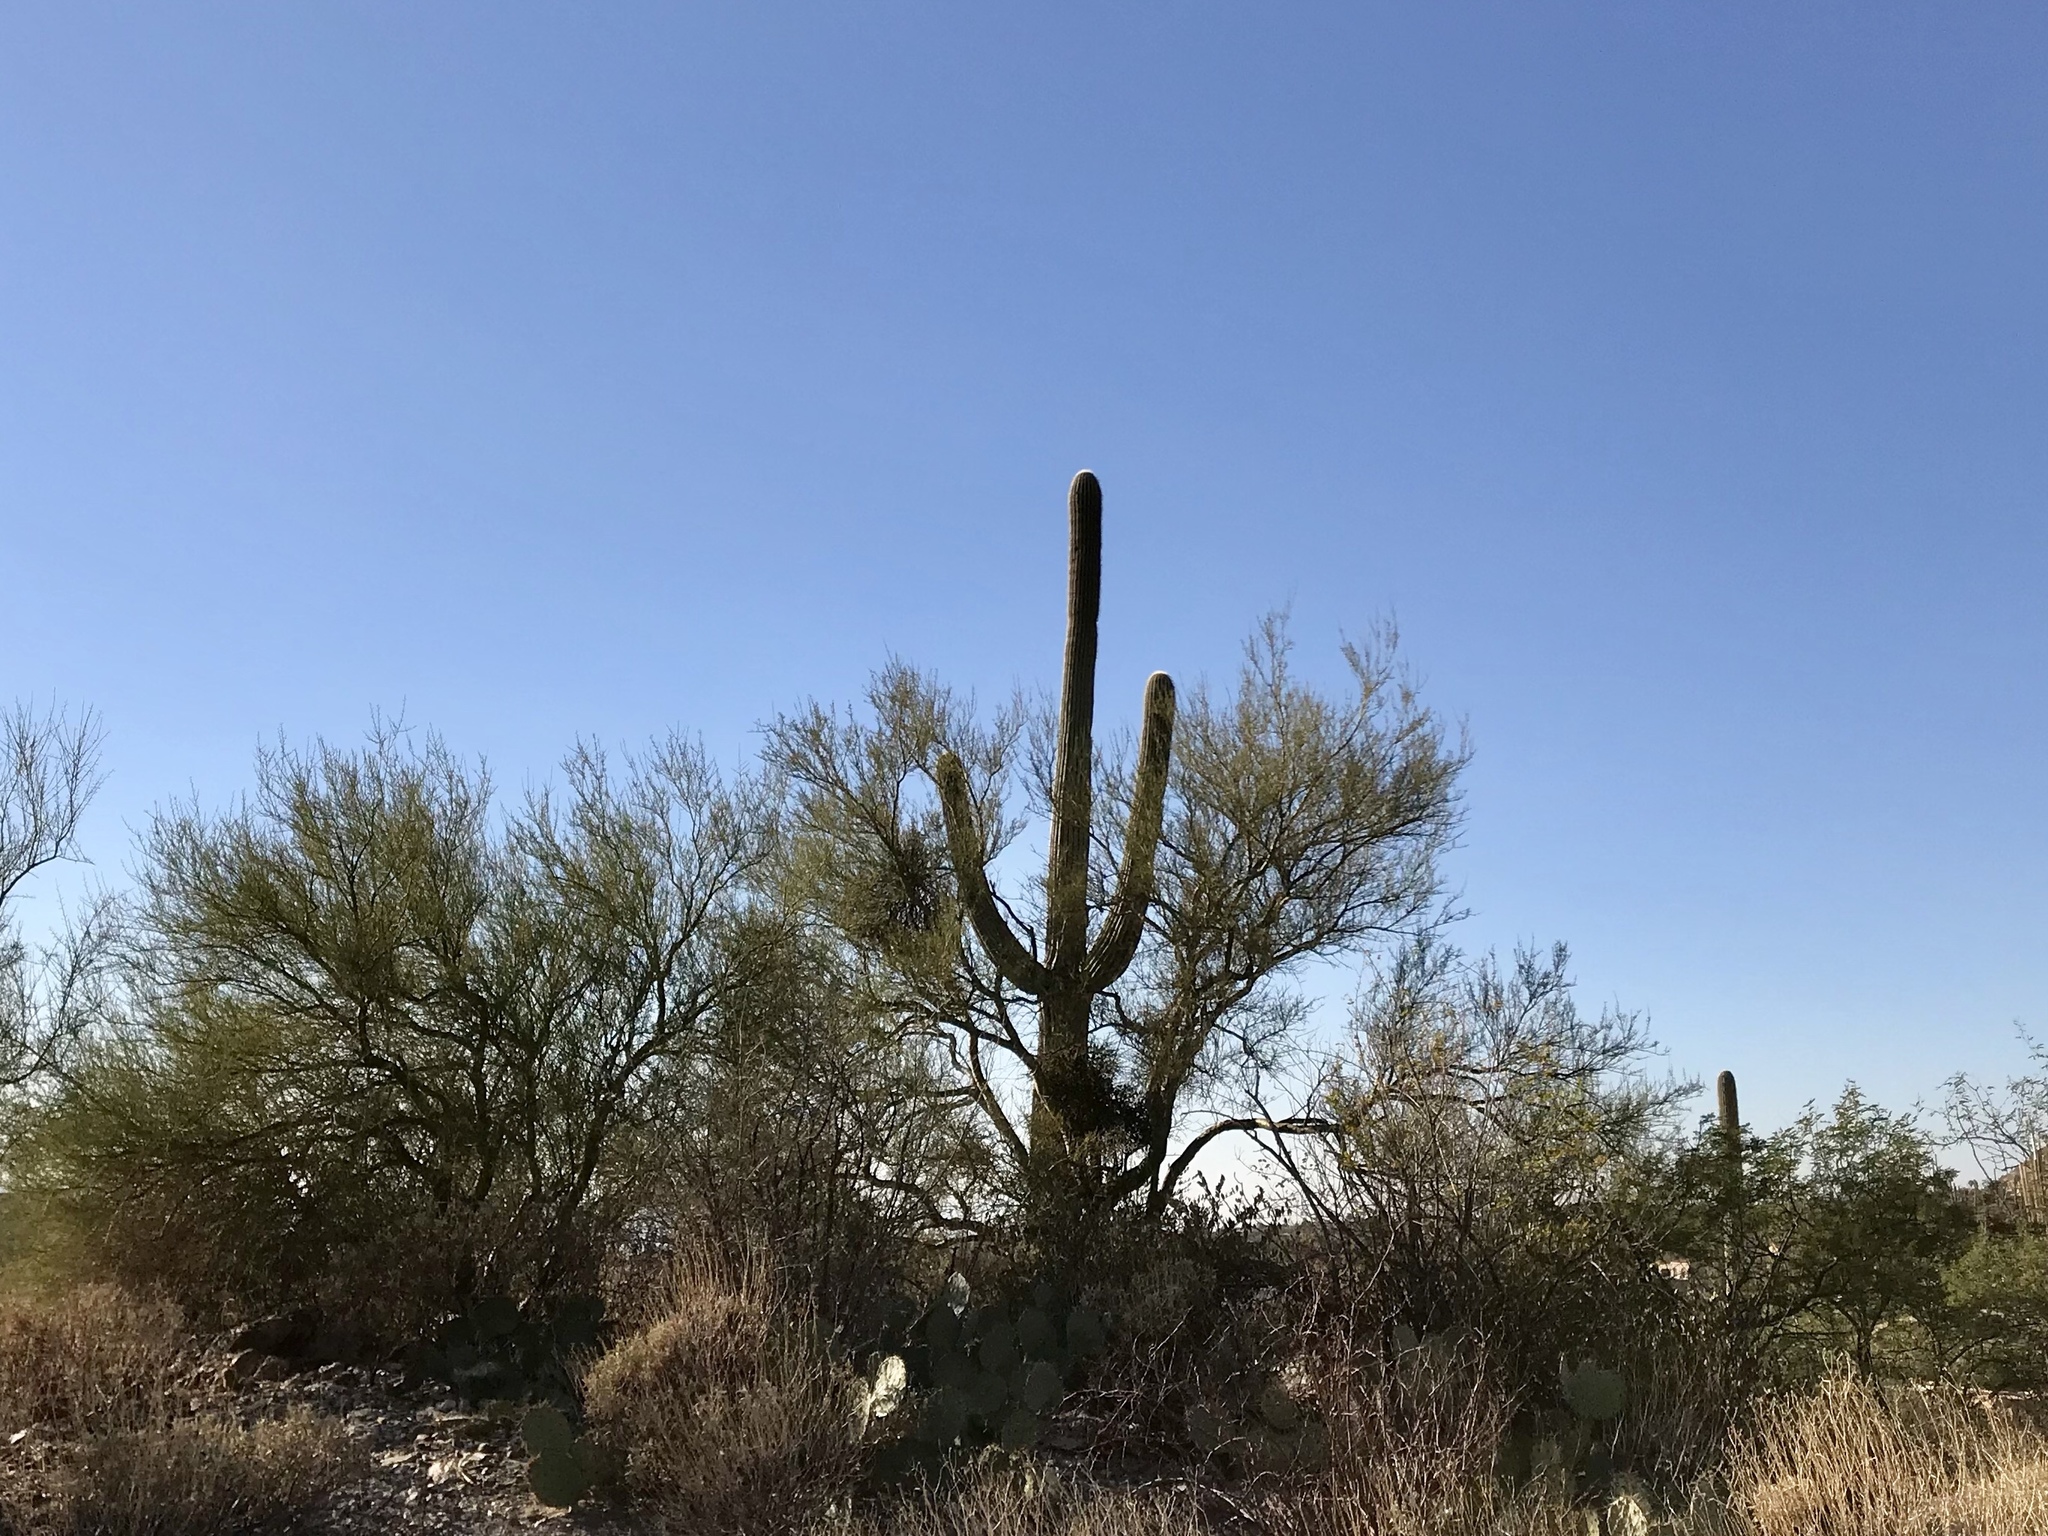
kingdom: Plantae
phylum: Tracheophyta
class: Magnoliopsida
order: Caryophyllales
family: Cactaceae
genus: Carnegiea
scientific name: Carnegiea gigantea
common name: Saguaro
